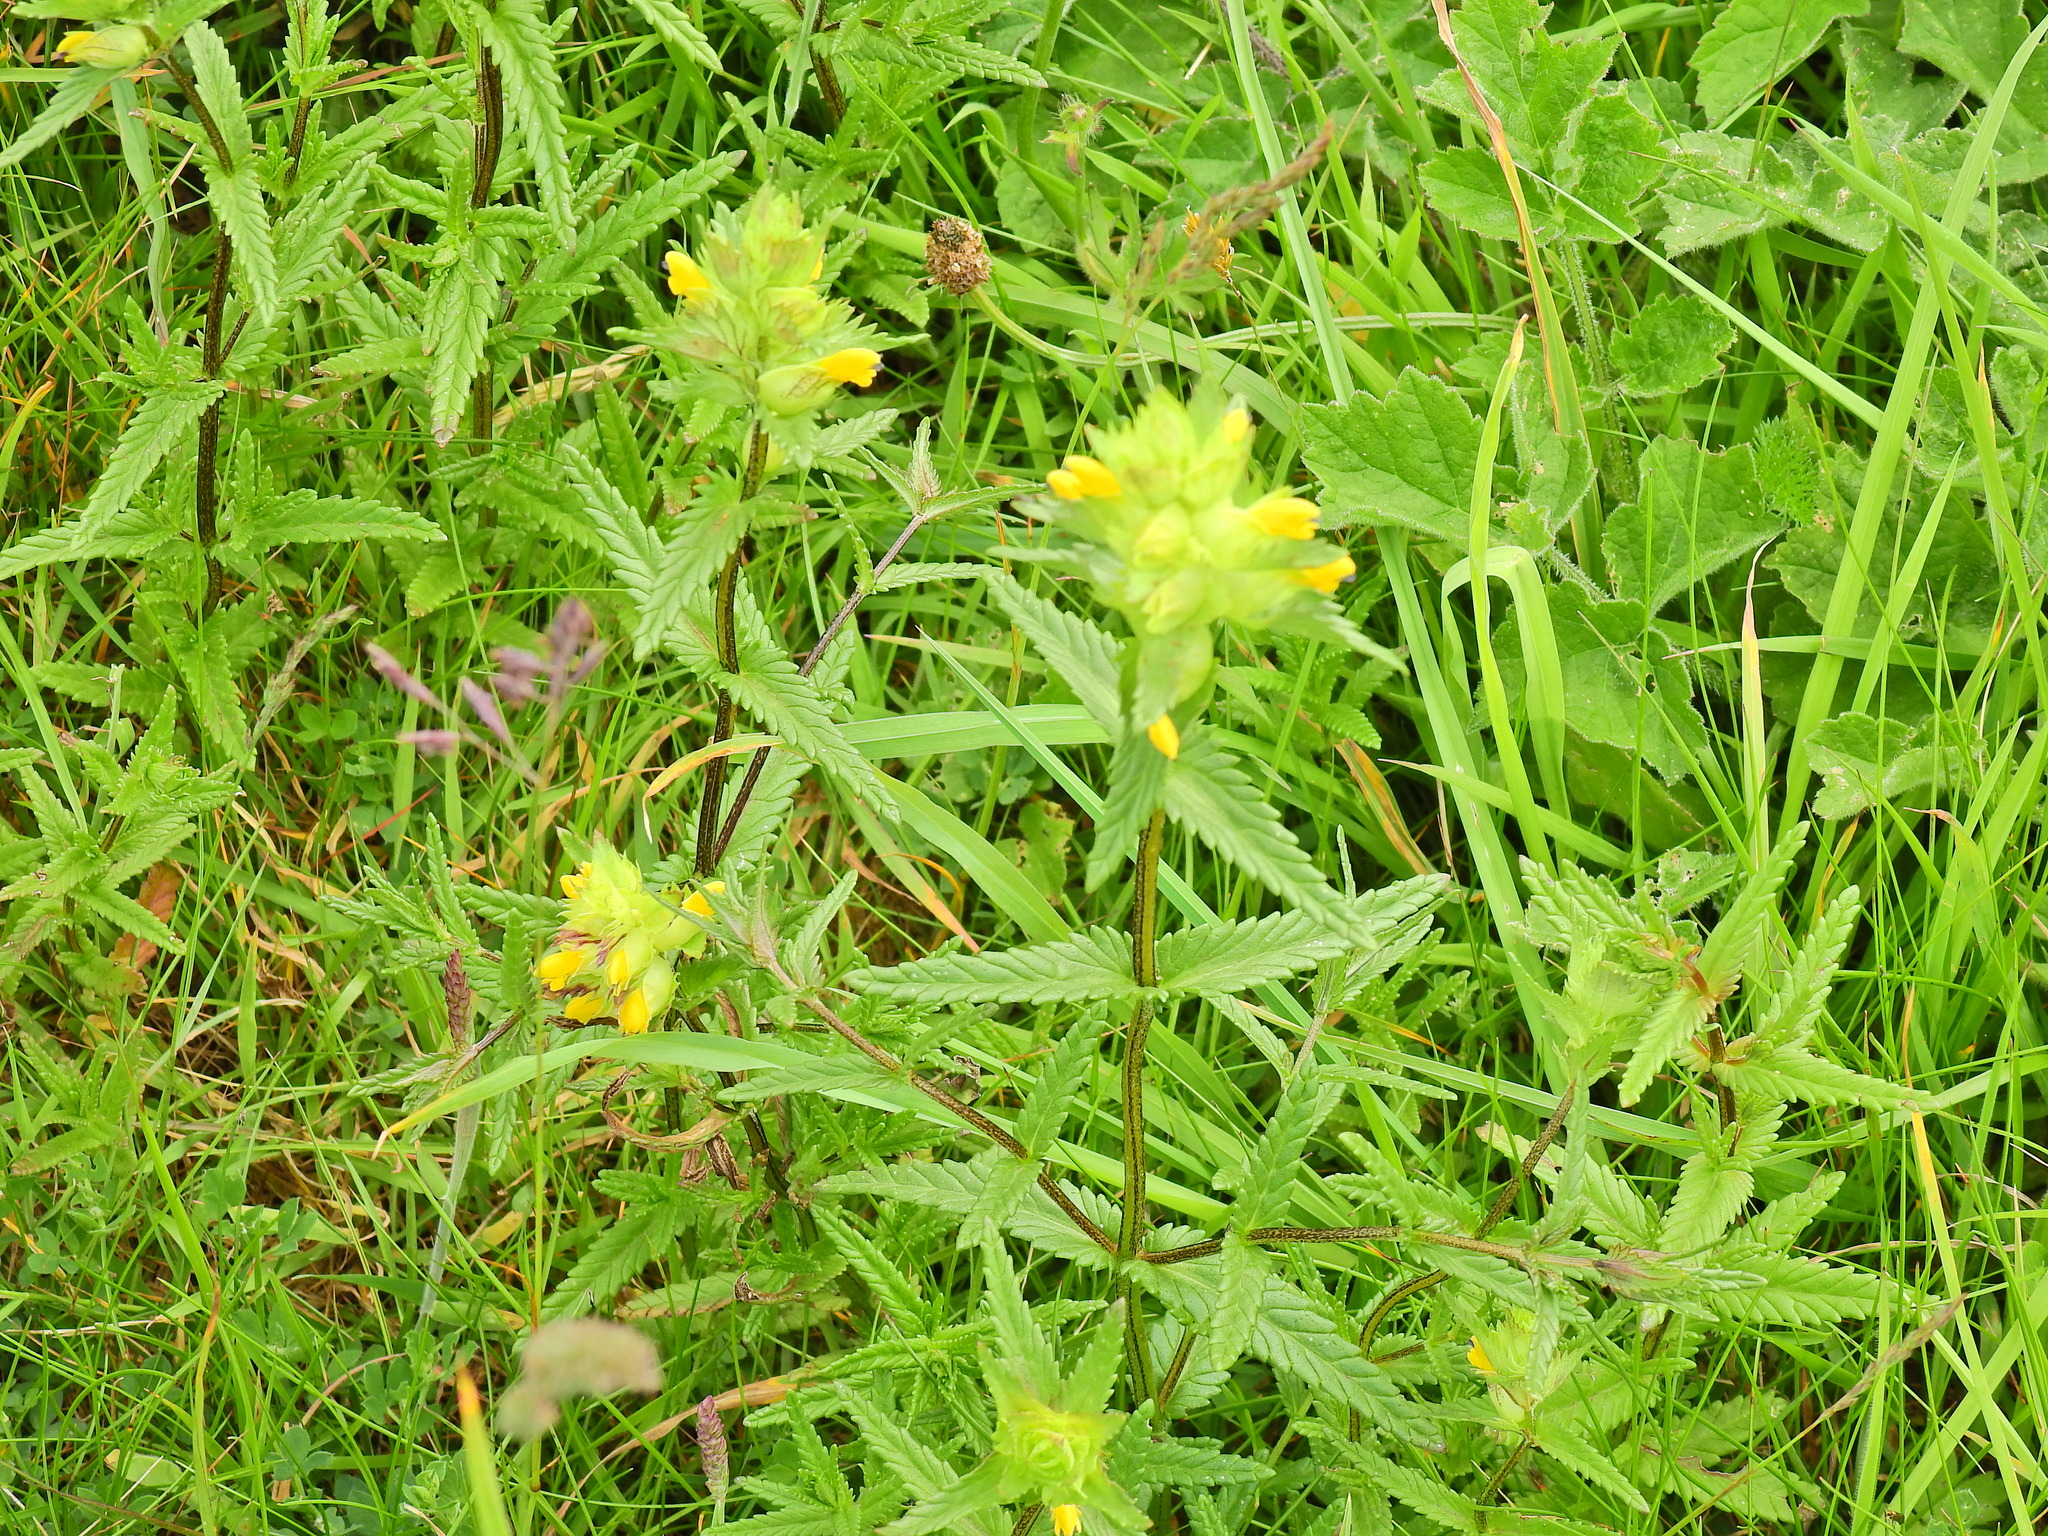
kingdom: Plantae
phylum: Tracheophyta
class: Magnoliopsida
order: Lamiales
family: Orobanchaceae
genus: Rhinanthus
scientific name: Rhinanthus minor
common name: Yellow-rattle
